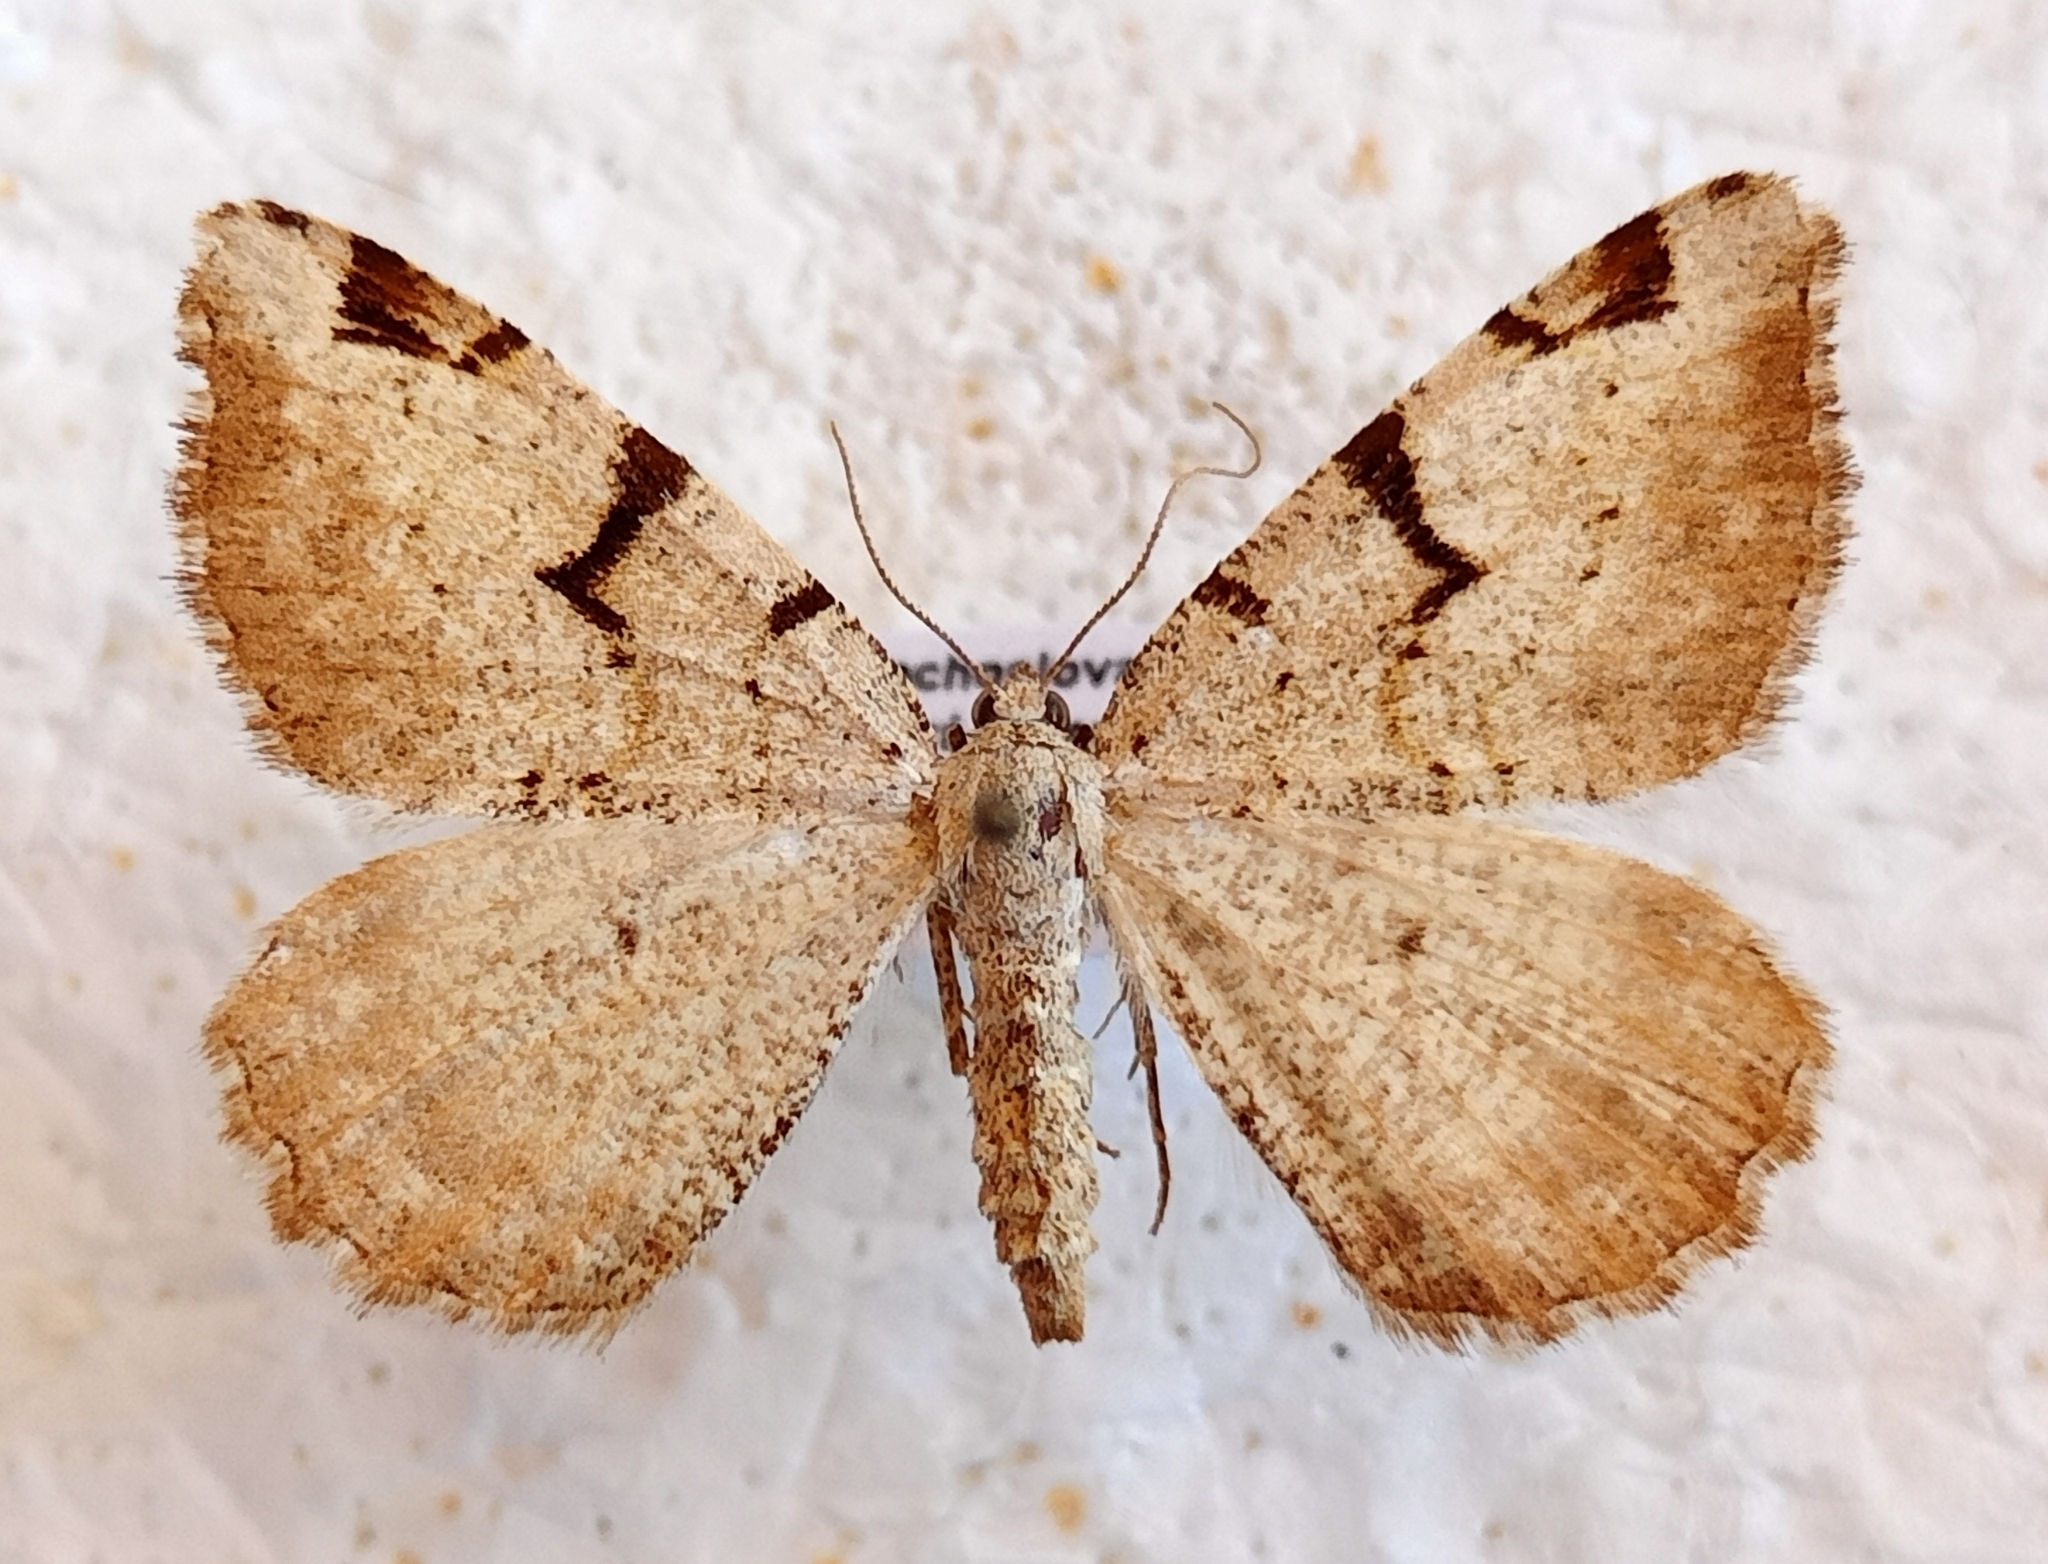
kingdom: Animalia
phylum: Arthropoda
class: Insecta
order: Lepidoptera
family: Geometridae
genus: Macaria
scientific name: Macaria wauaria
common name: V-moth
